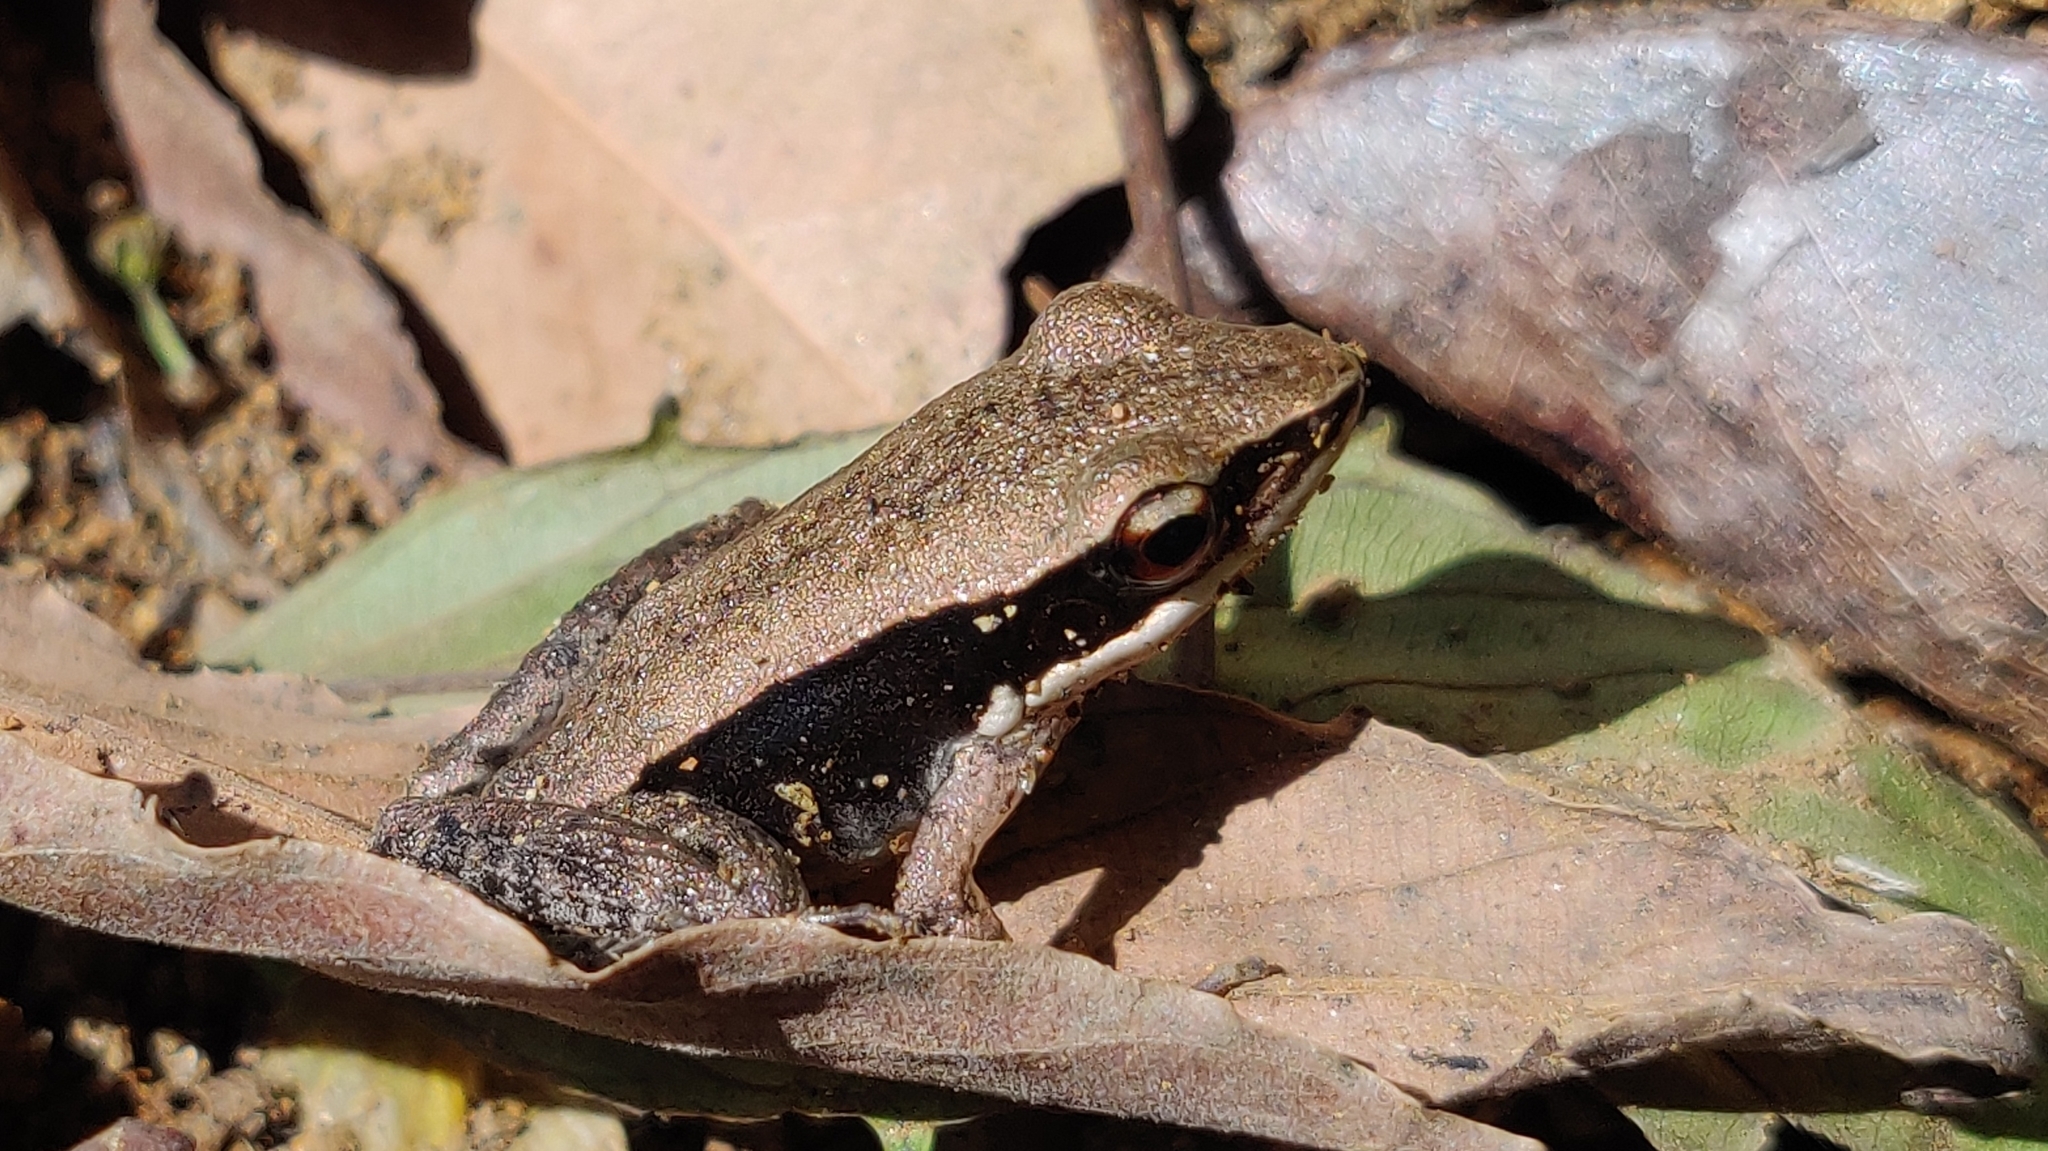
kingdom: Animalia
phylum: Chordata
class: Amphibia
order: Anura
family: Ranidae
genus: Indosylvirana
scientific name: Indosylvirana doni
